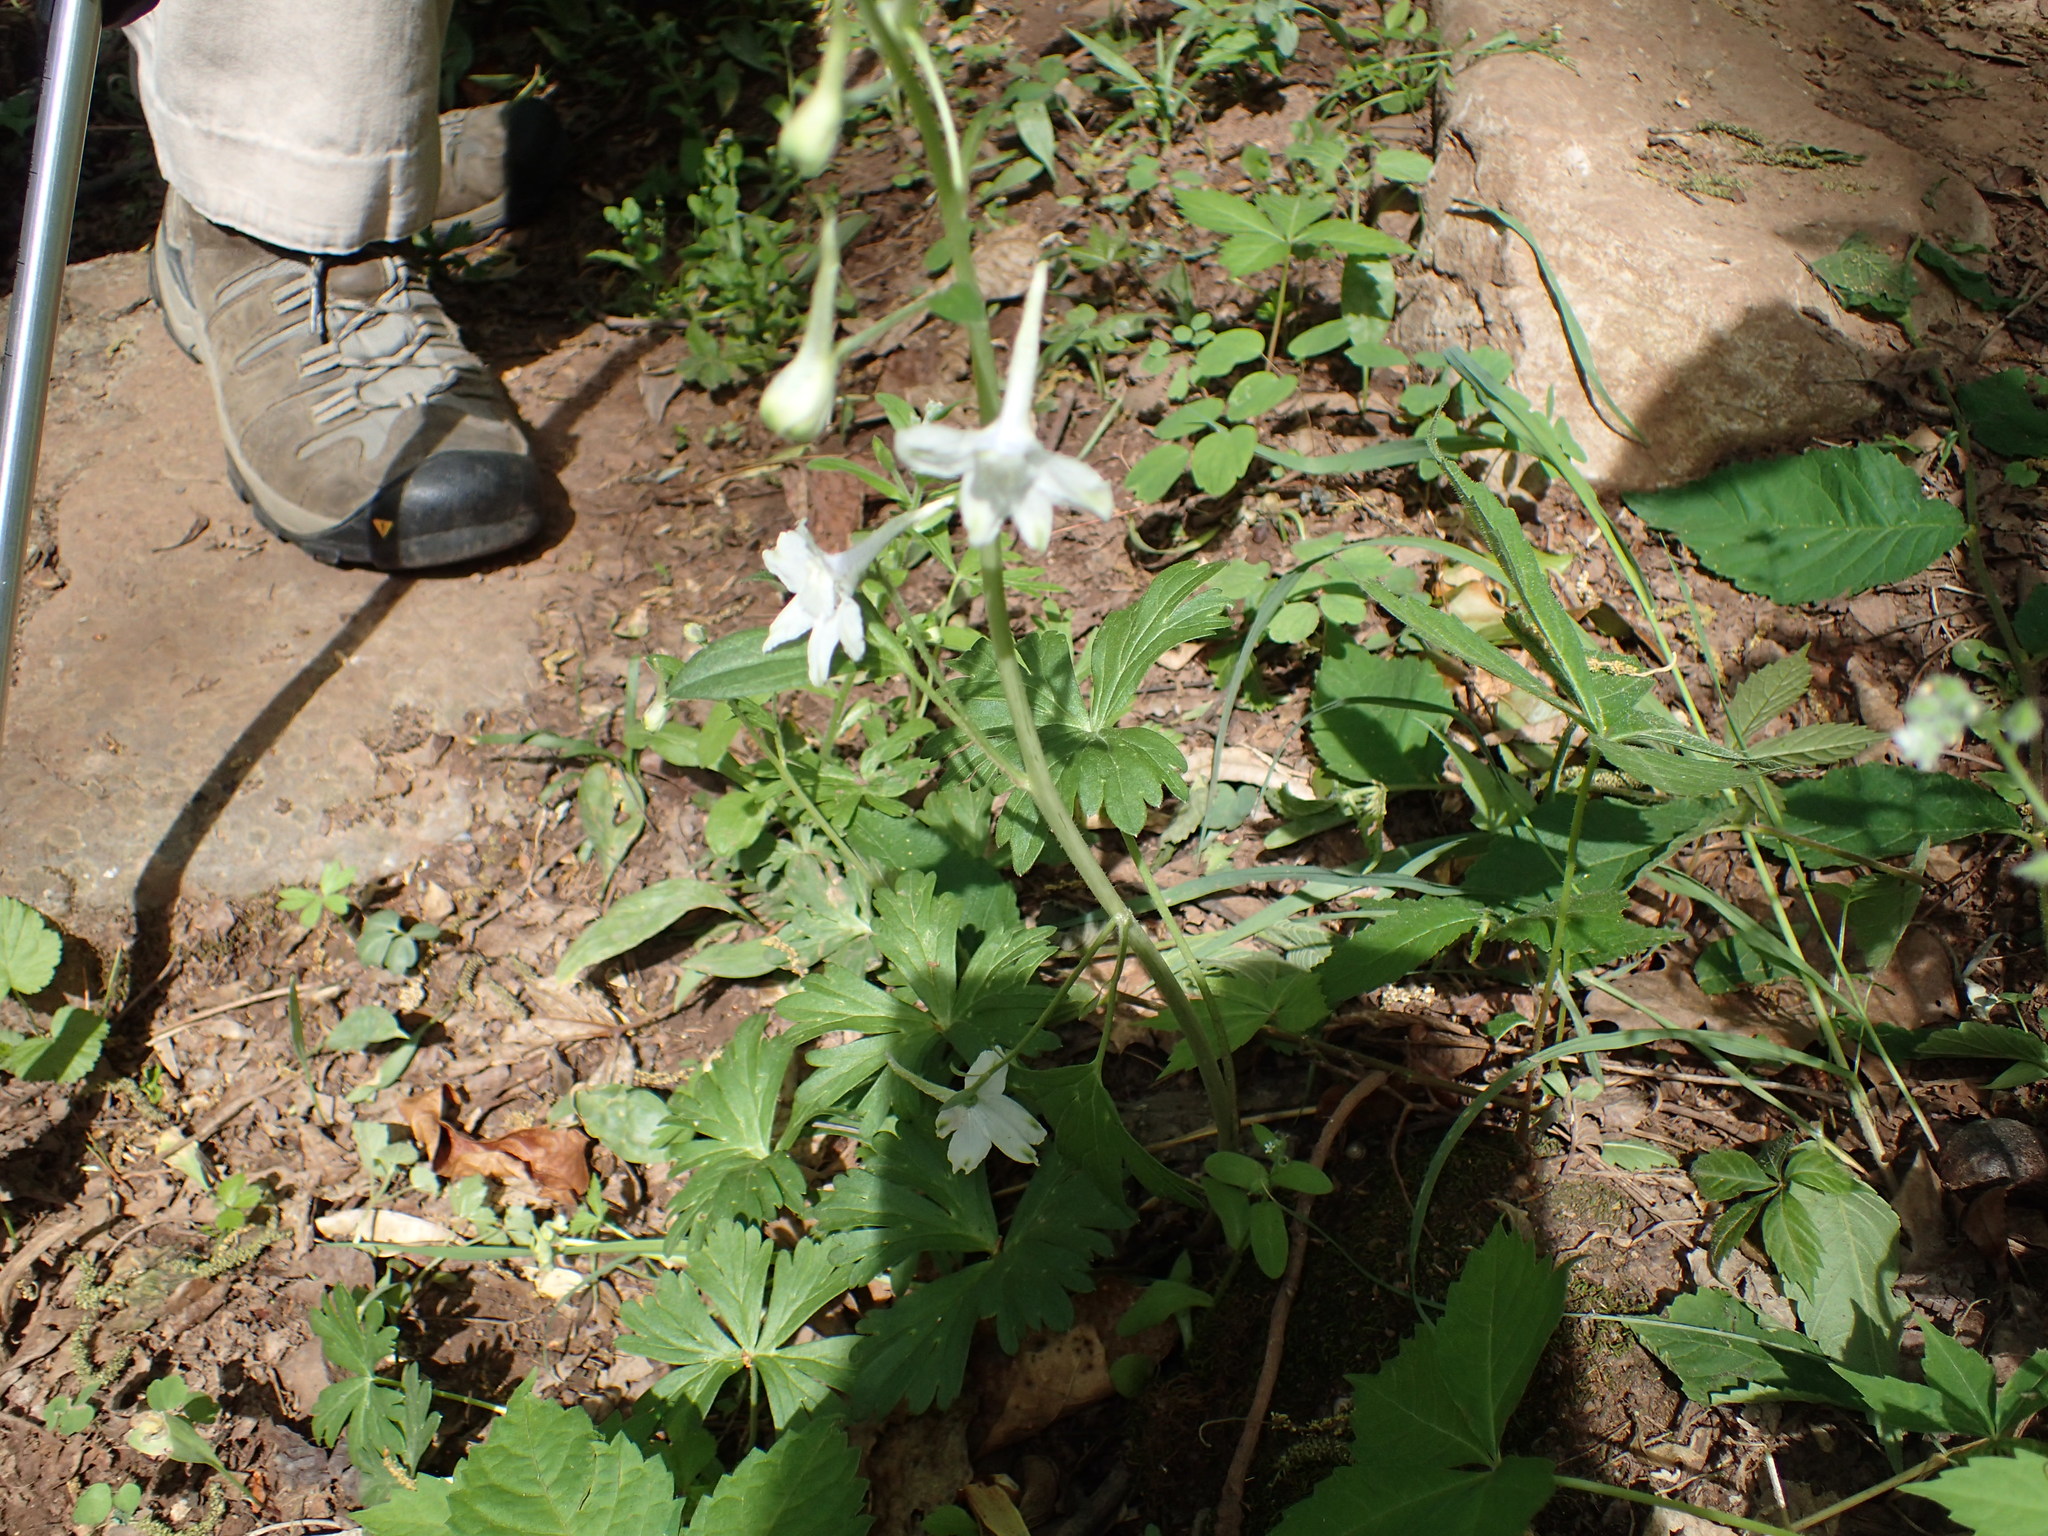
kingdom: Plantae
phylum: Tracheophyta
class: Magnoliopsida
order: Ranunculales
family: Ranunculaceae
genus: Delphinium
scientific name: Delphinium tricorne
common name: Dwarf larkspur
